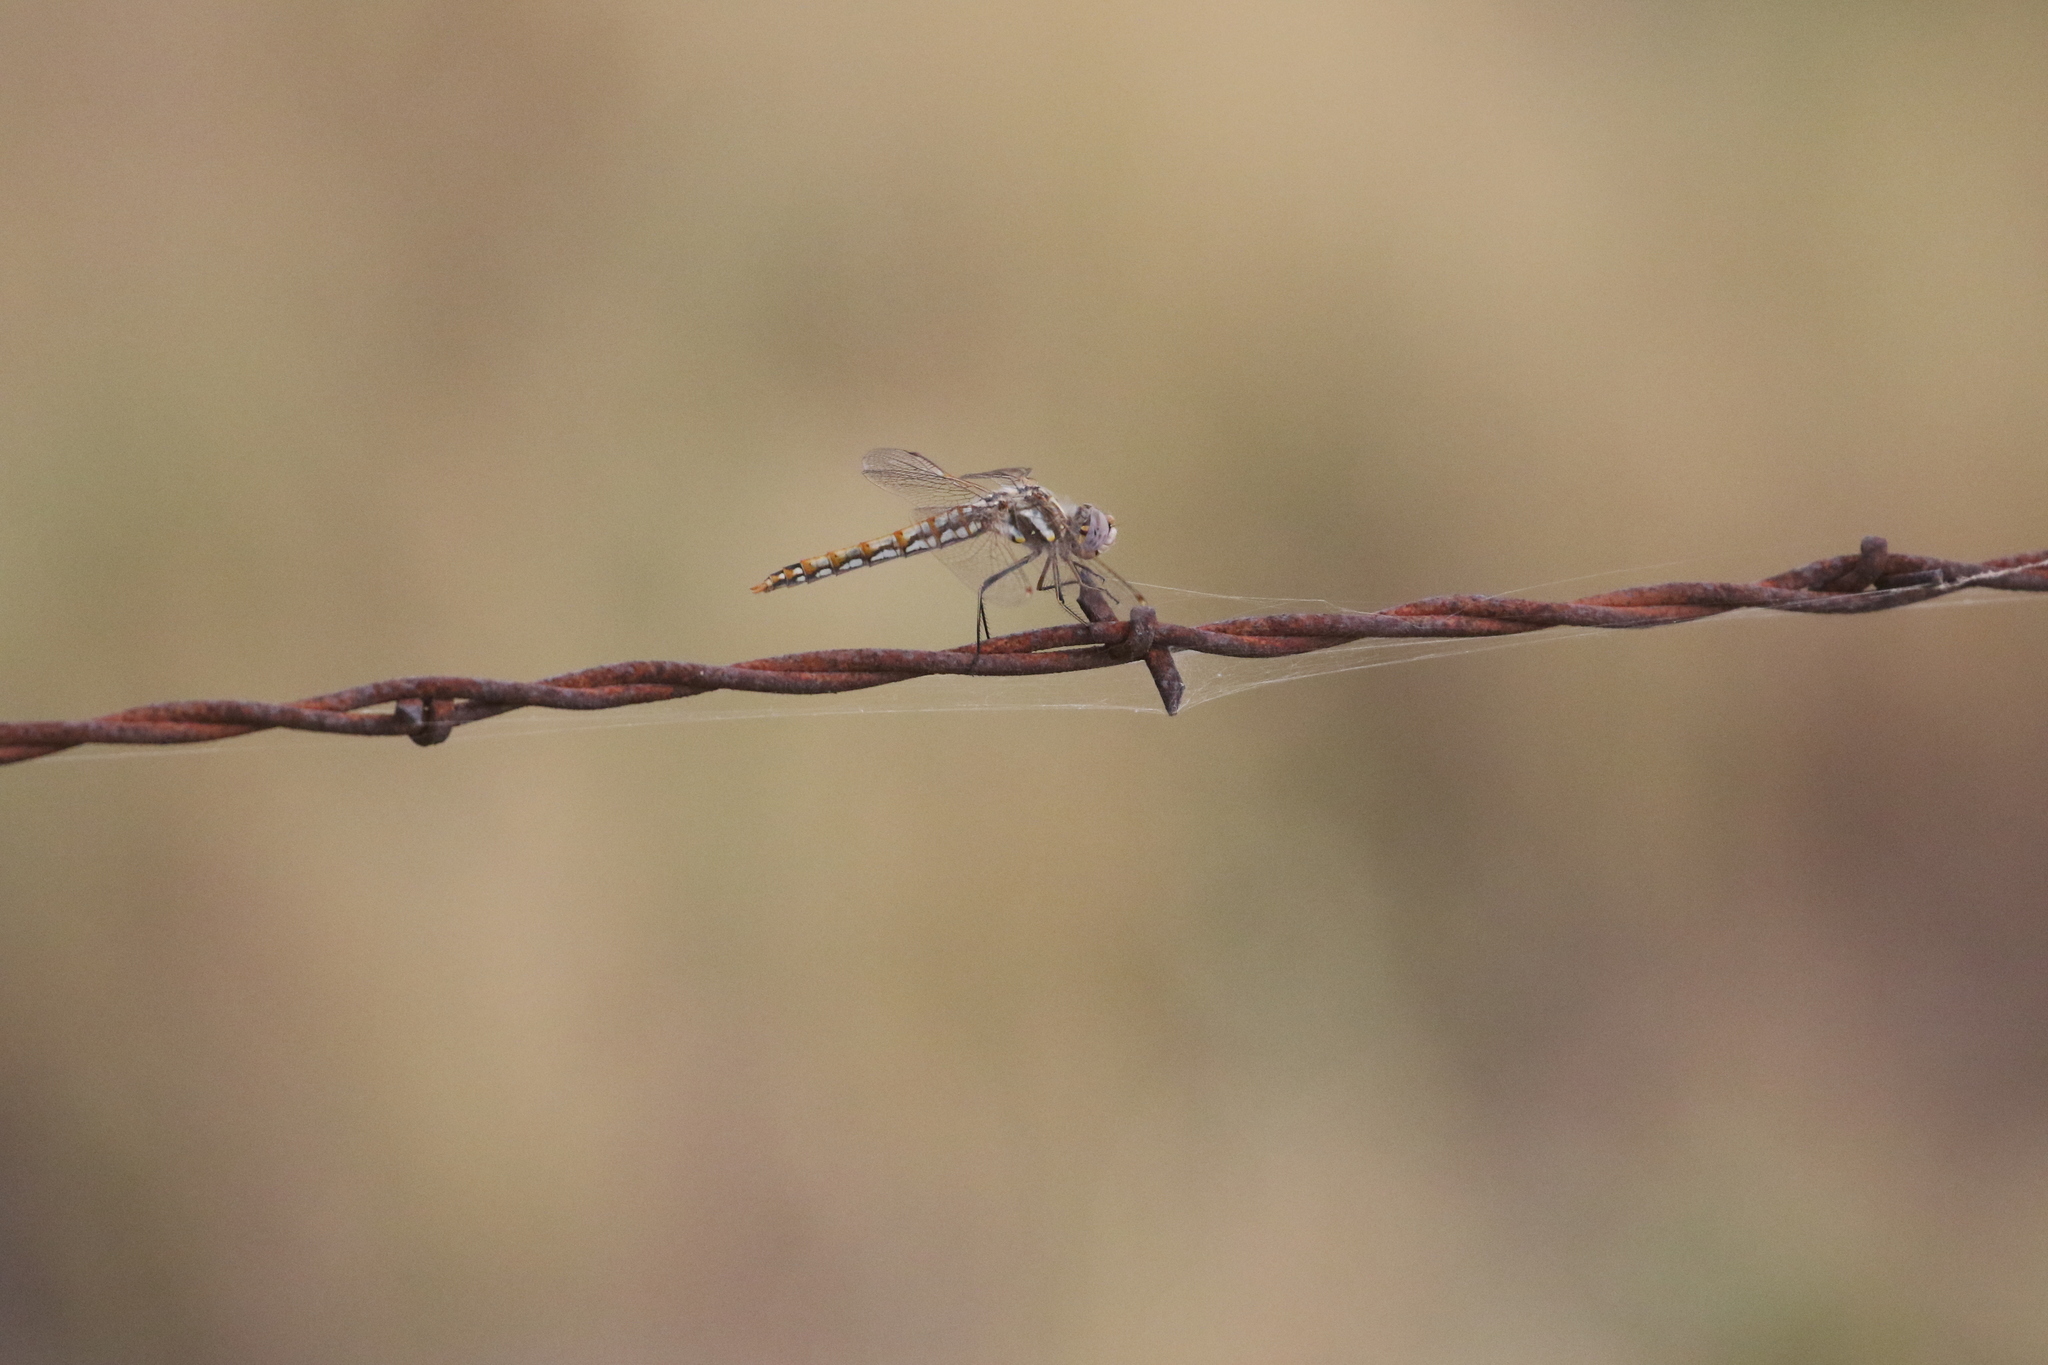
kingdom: Animalia
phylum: Arthropoda
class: Insecta
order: Odonata
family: Libellulidae
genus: Sympetrum
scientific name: Sympetrum corruptum
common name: Variegated meadowhawk
